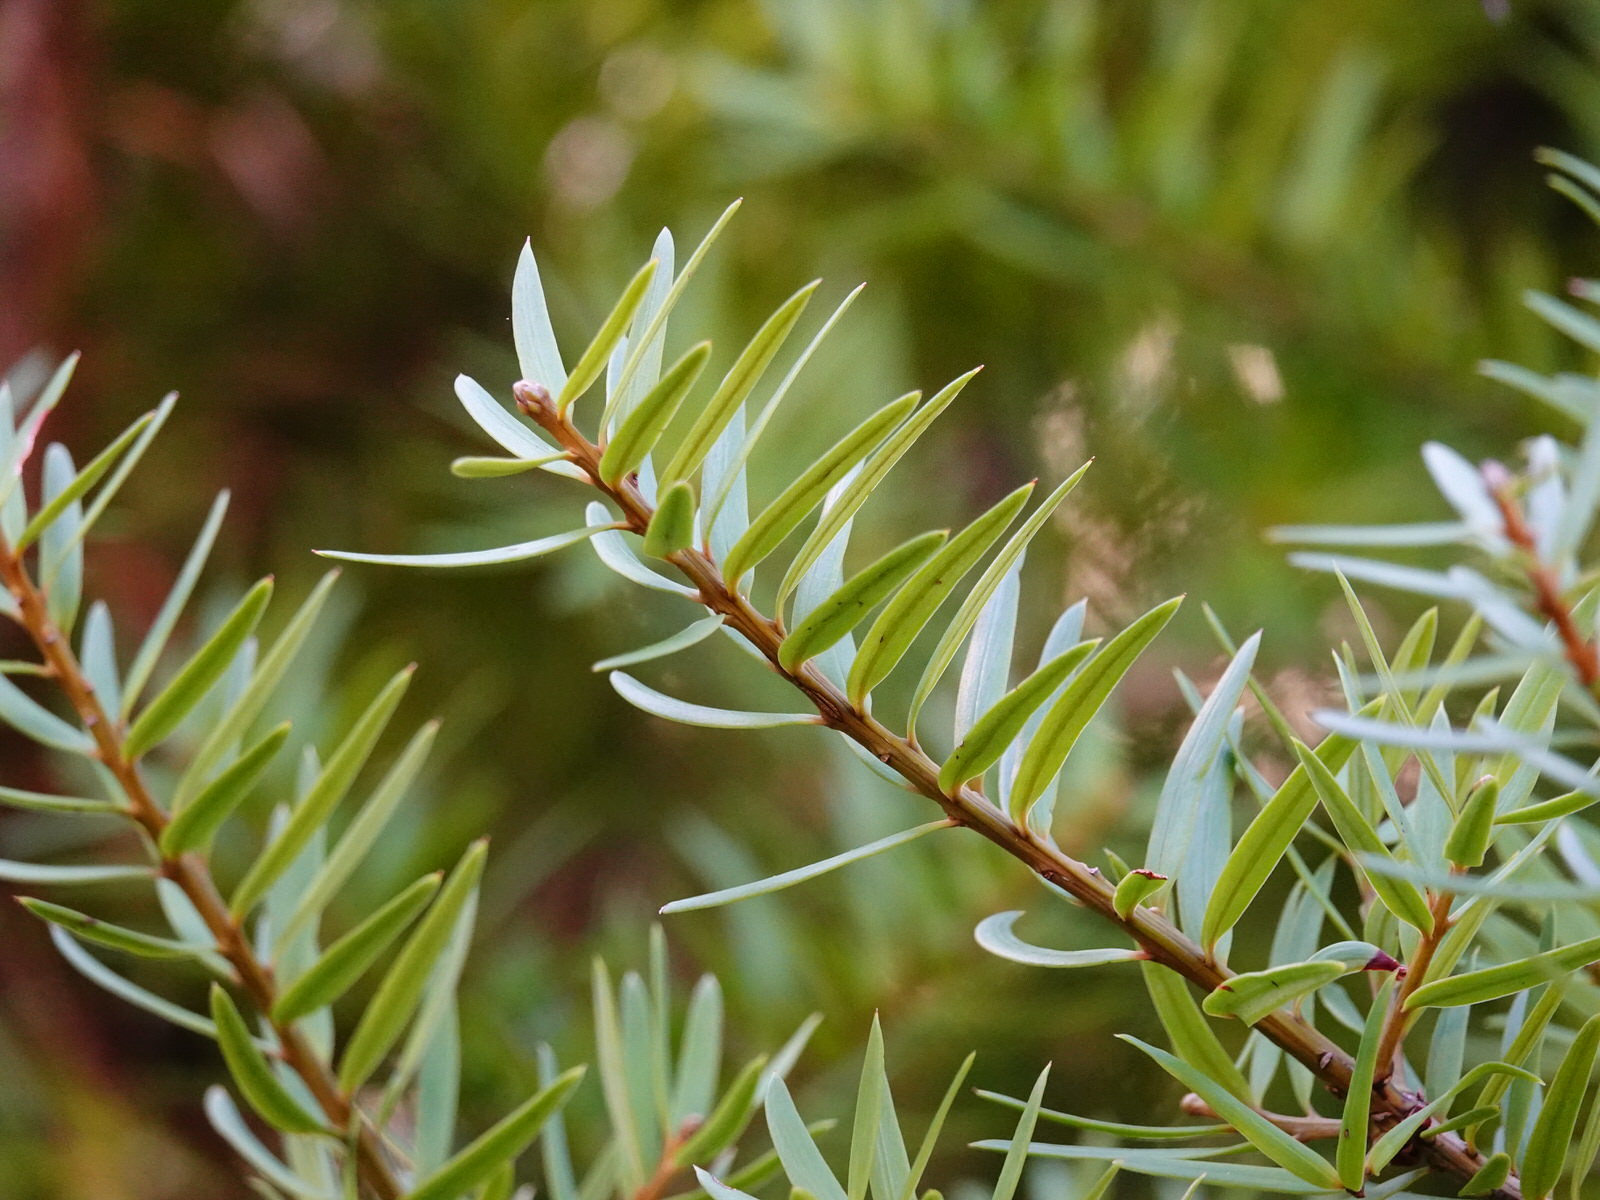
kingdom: Plantae
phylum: Tracheophyta
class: Pinopsida
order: Pinales
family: Podocarpaceae
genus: Podocarpus
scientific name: Podocarpus laetus
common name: Hall's totara
